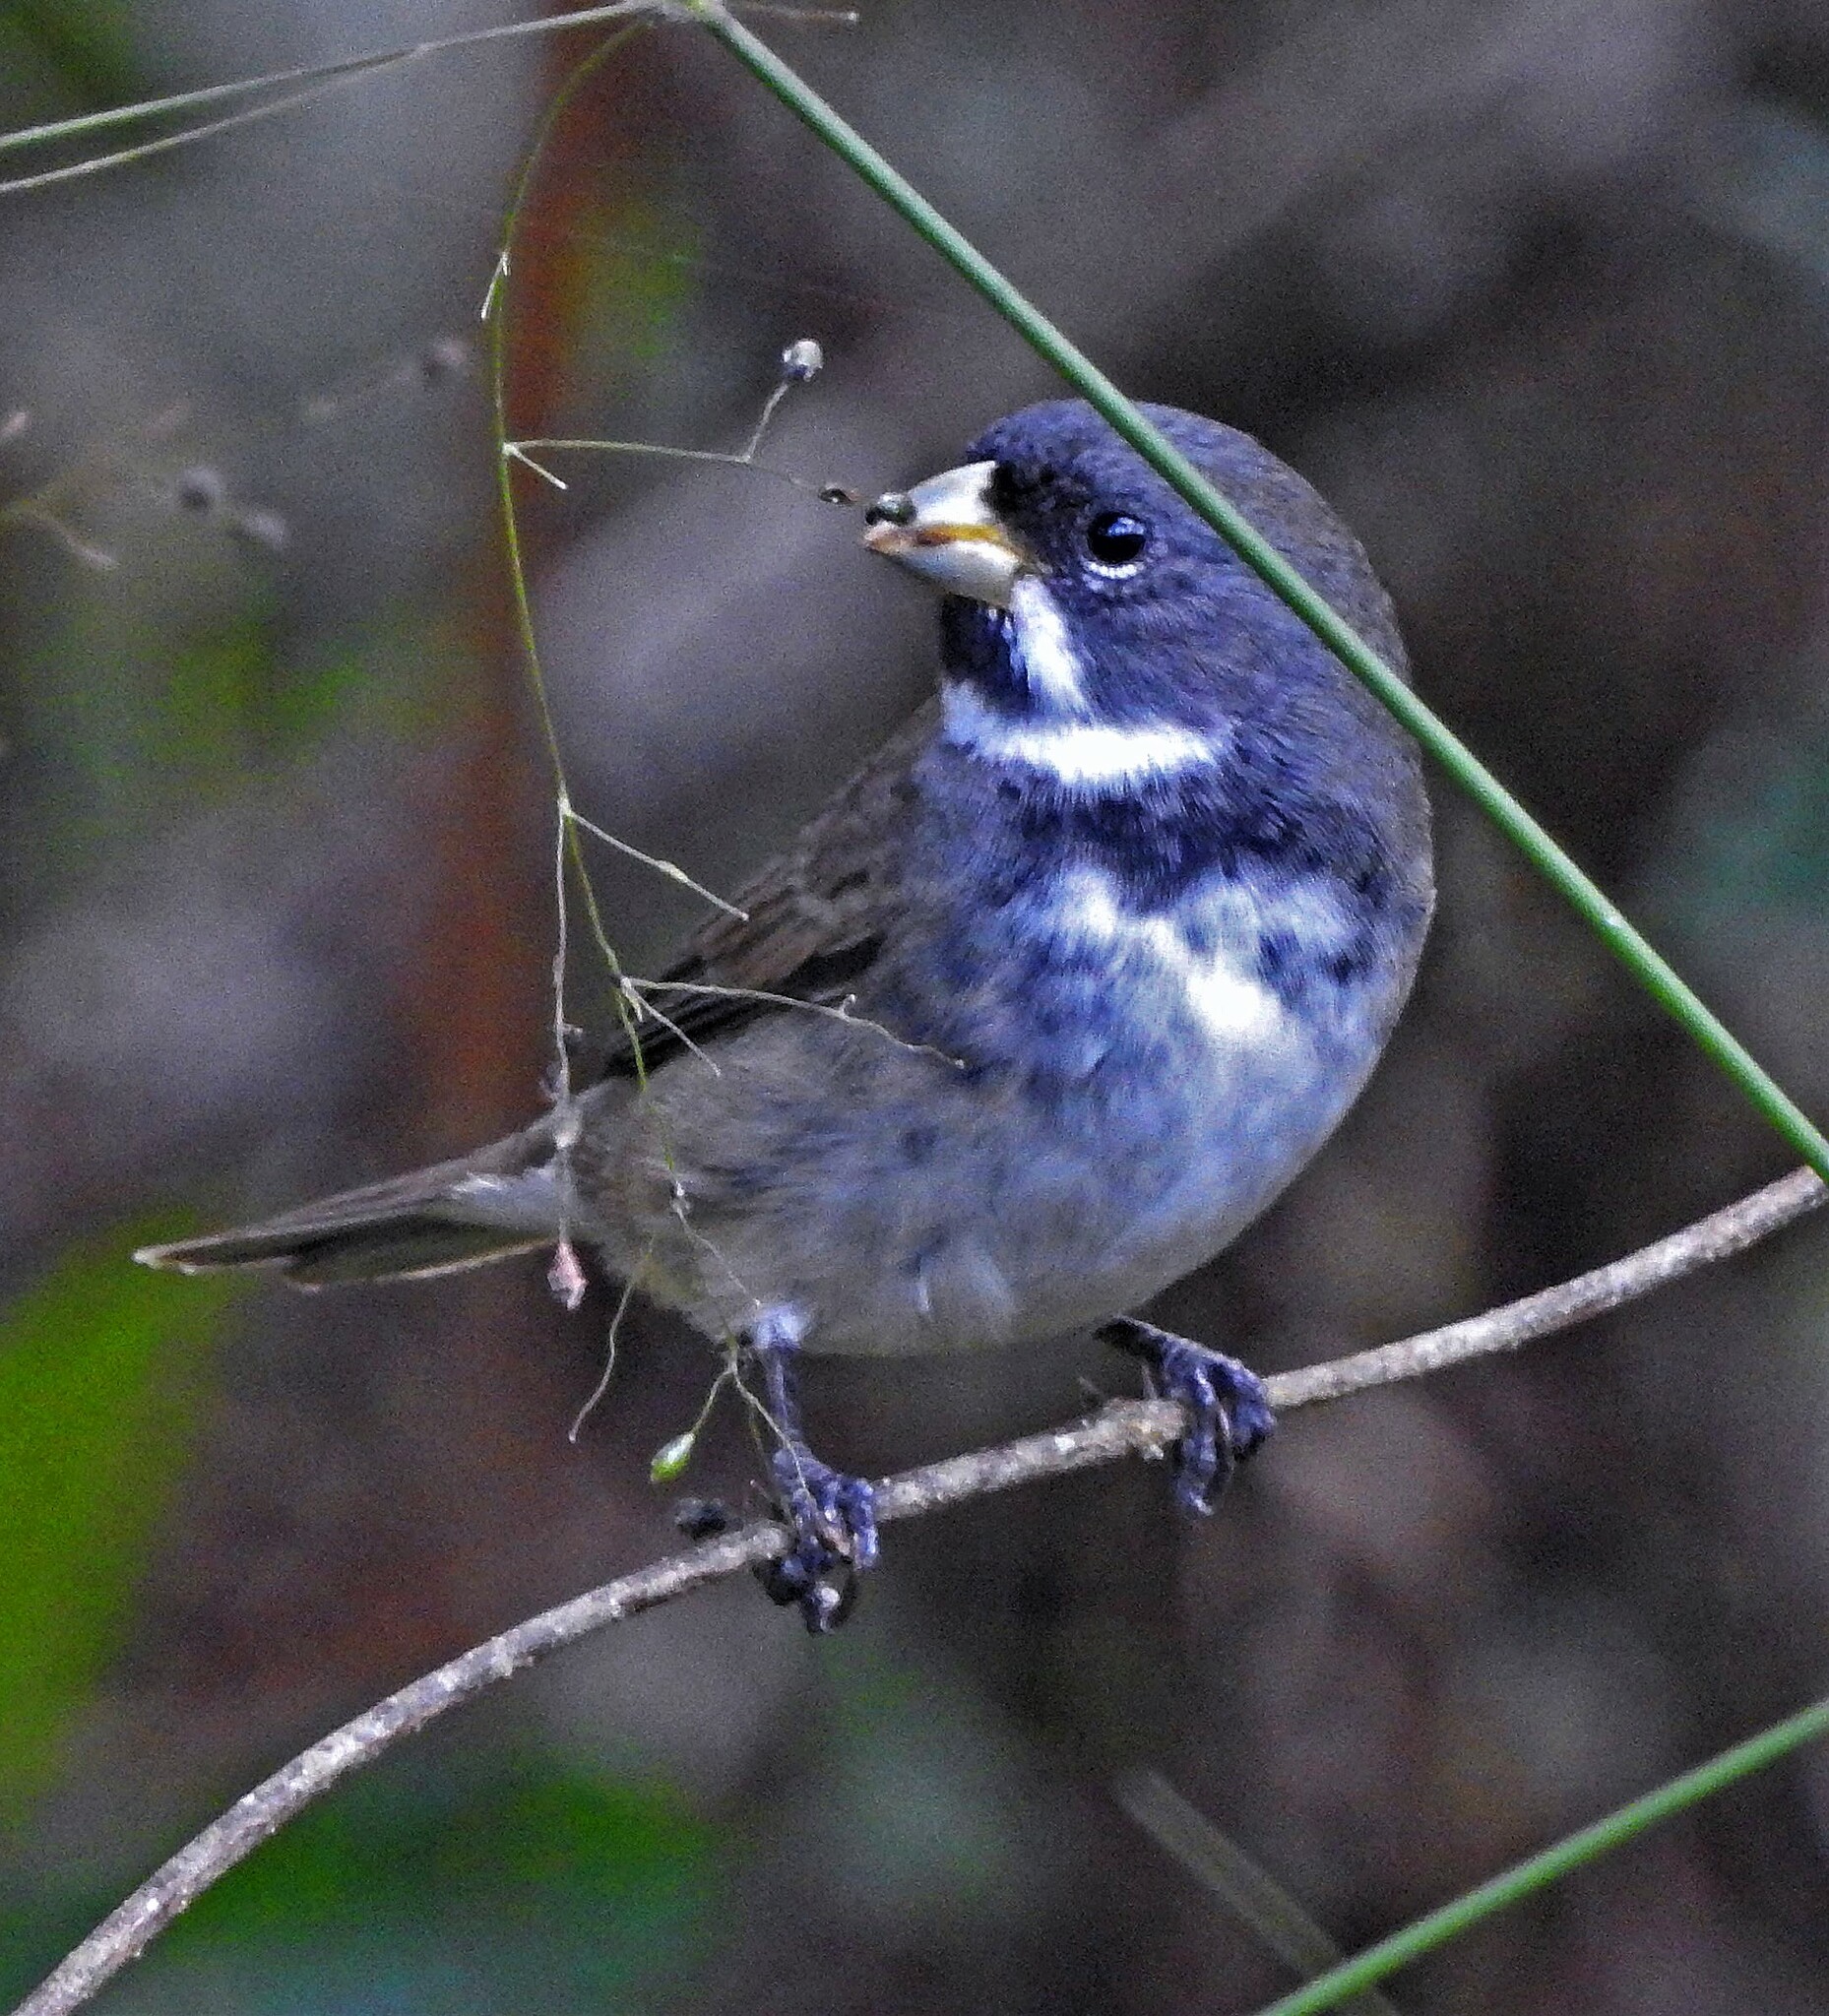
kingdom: Animalia
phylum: Chordata
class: Aves
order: Passeriformes
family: Thraupidae
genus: Sporophila
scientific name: Sporophila caerulescens
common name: Double-collared seedeater
